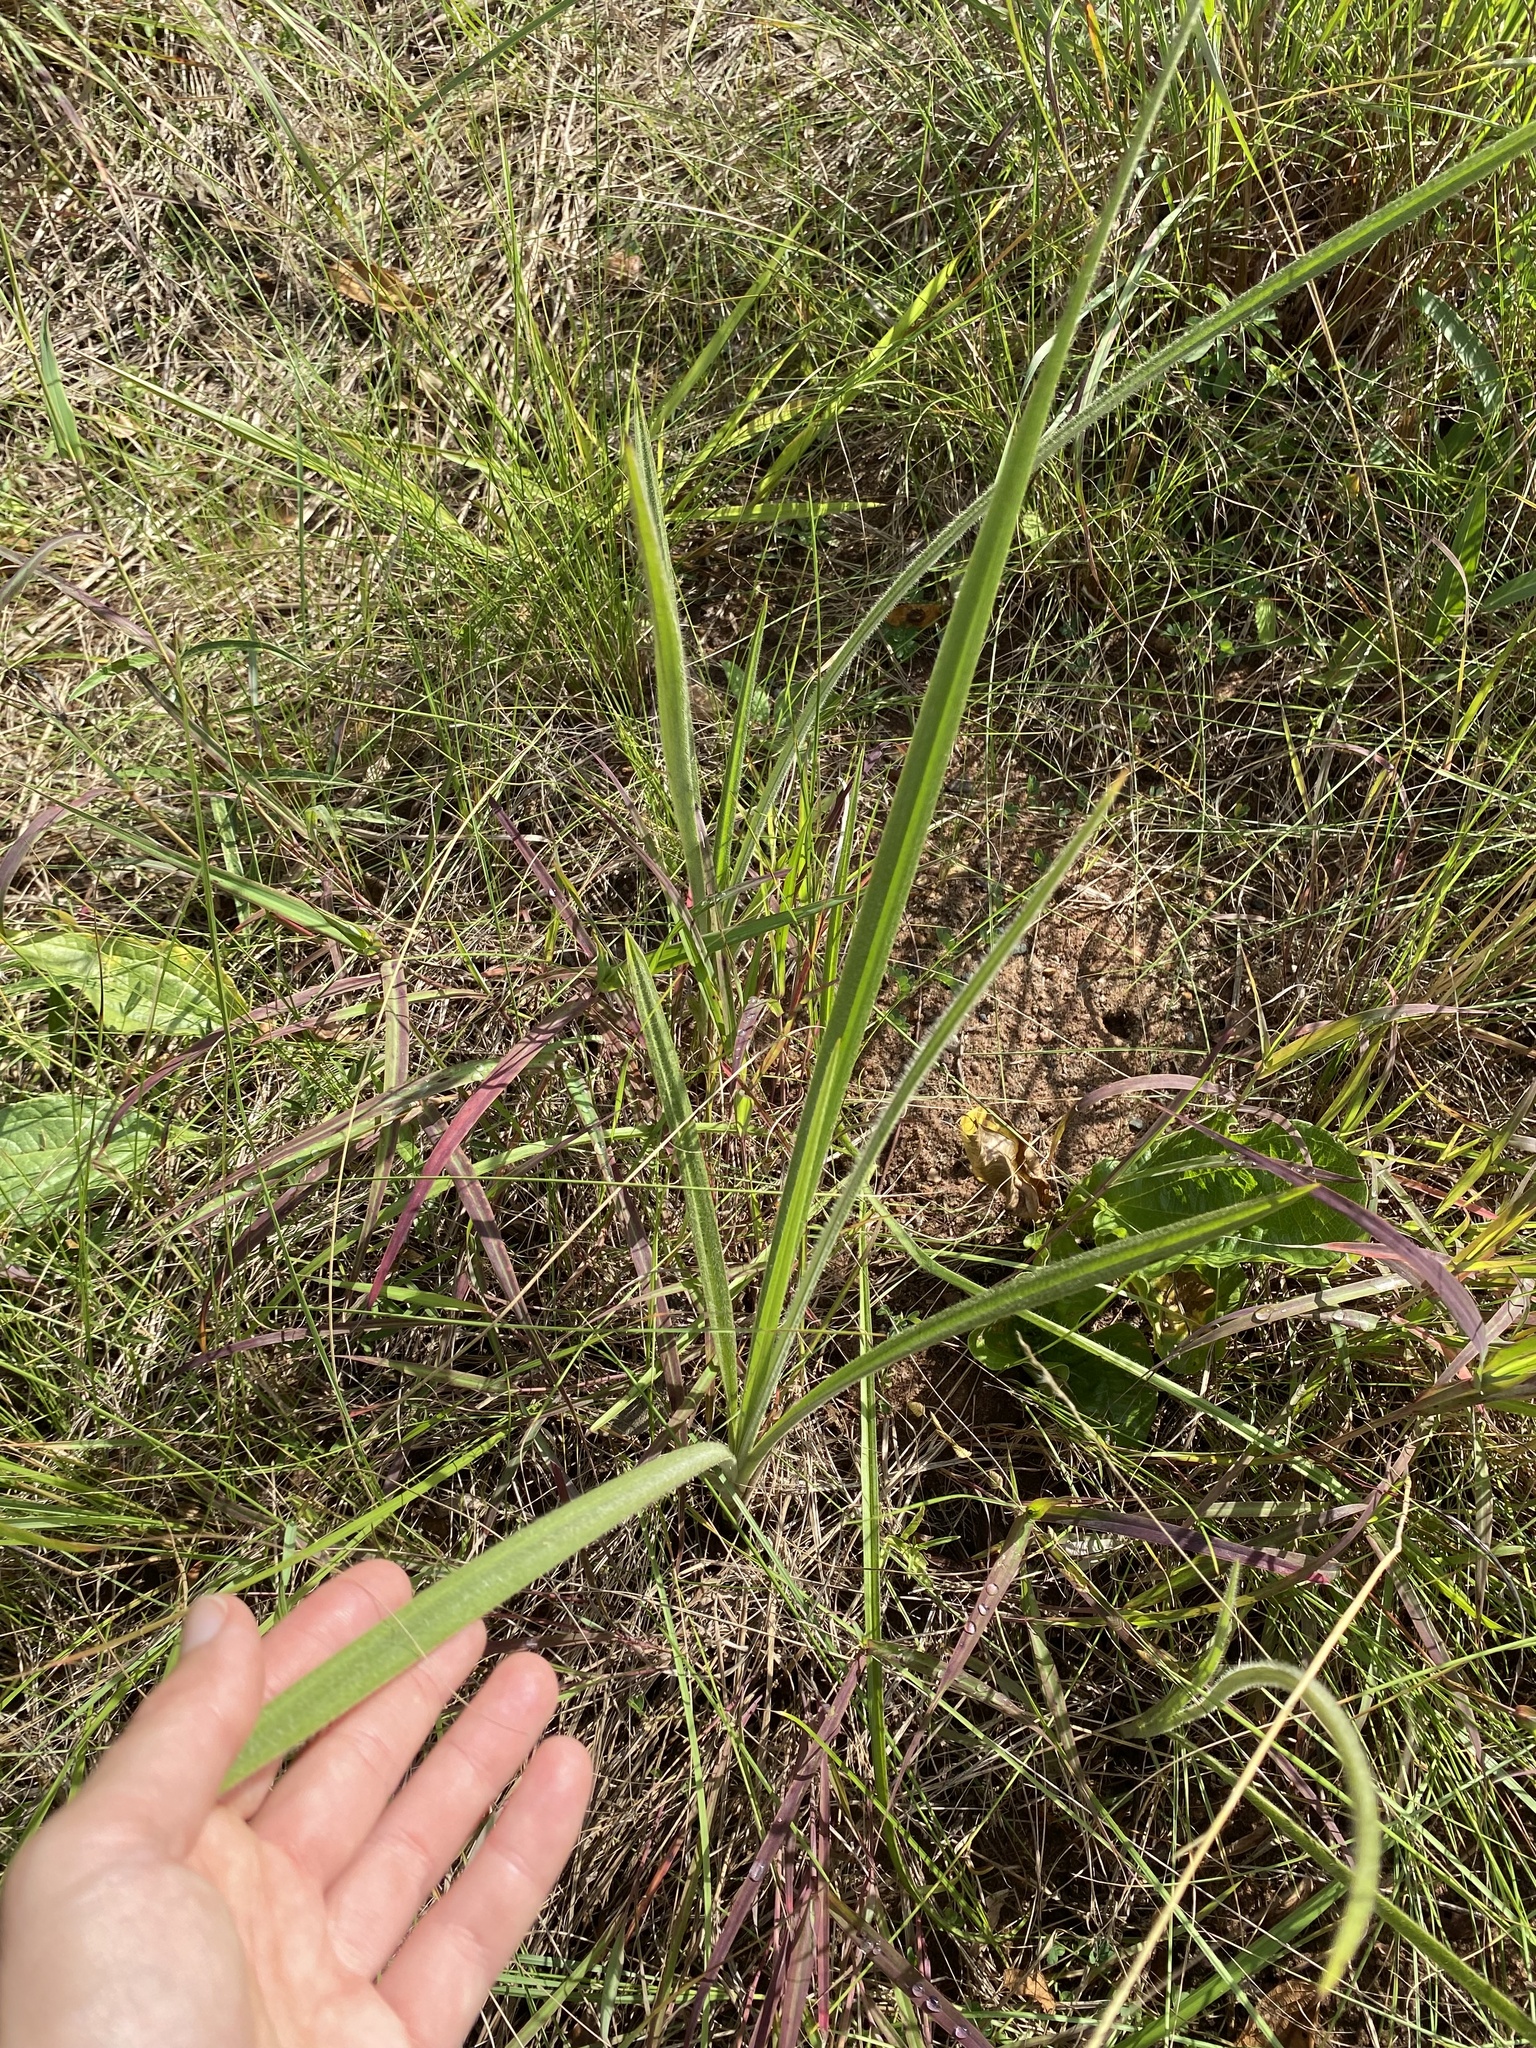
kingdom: Plantae
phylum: Tracheophyta
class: Liliopsida
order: Asparagales
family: Hypoxidaceae
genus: Hypoxis
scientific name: Hypoxis rigidula
